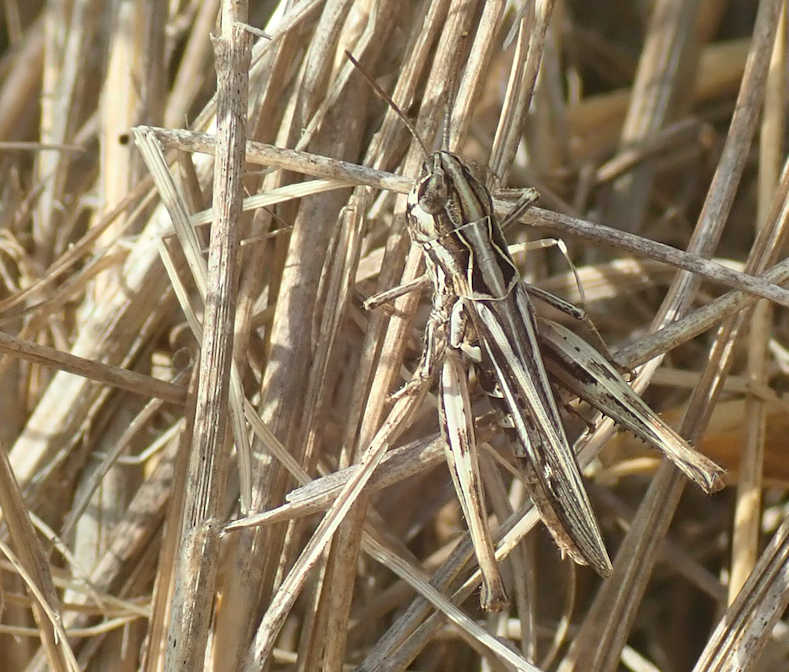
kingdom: Animalia
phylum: Arthropoda
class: Insecta
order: Orthoptera
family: Acrididae
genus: Chorthippus
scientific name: Chorthippus mollis
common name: Lesser field grasshopper
